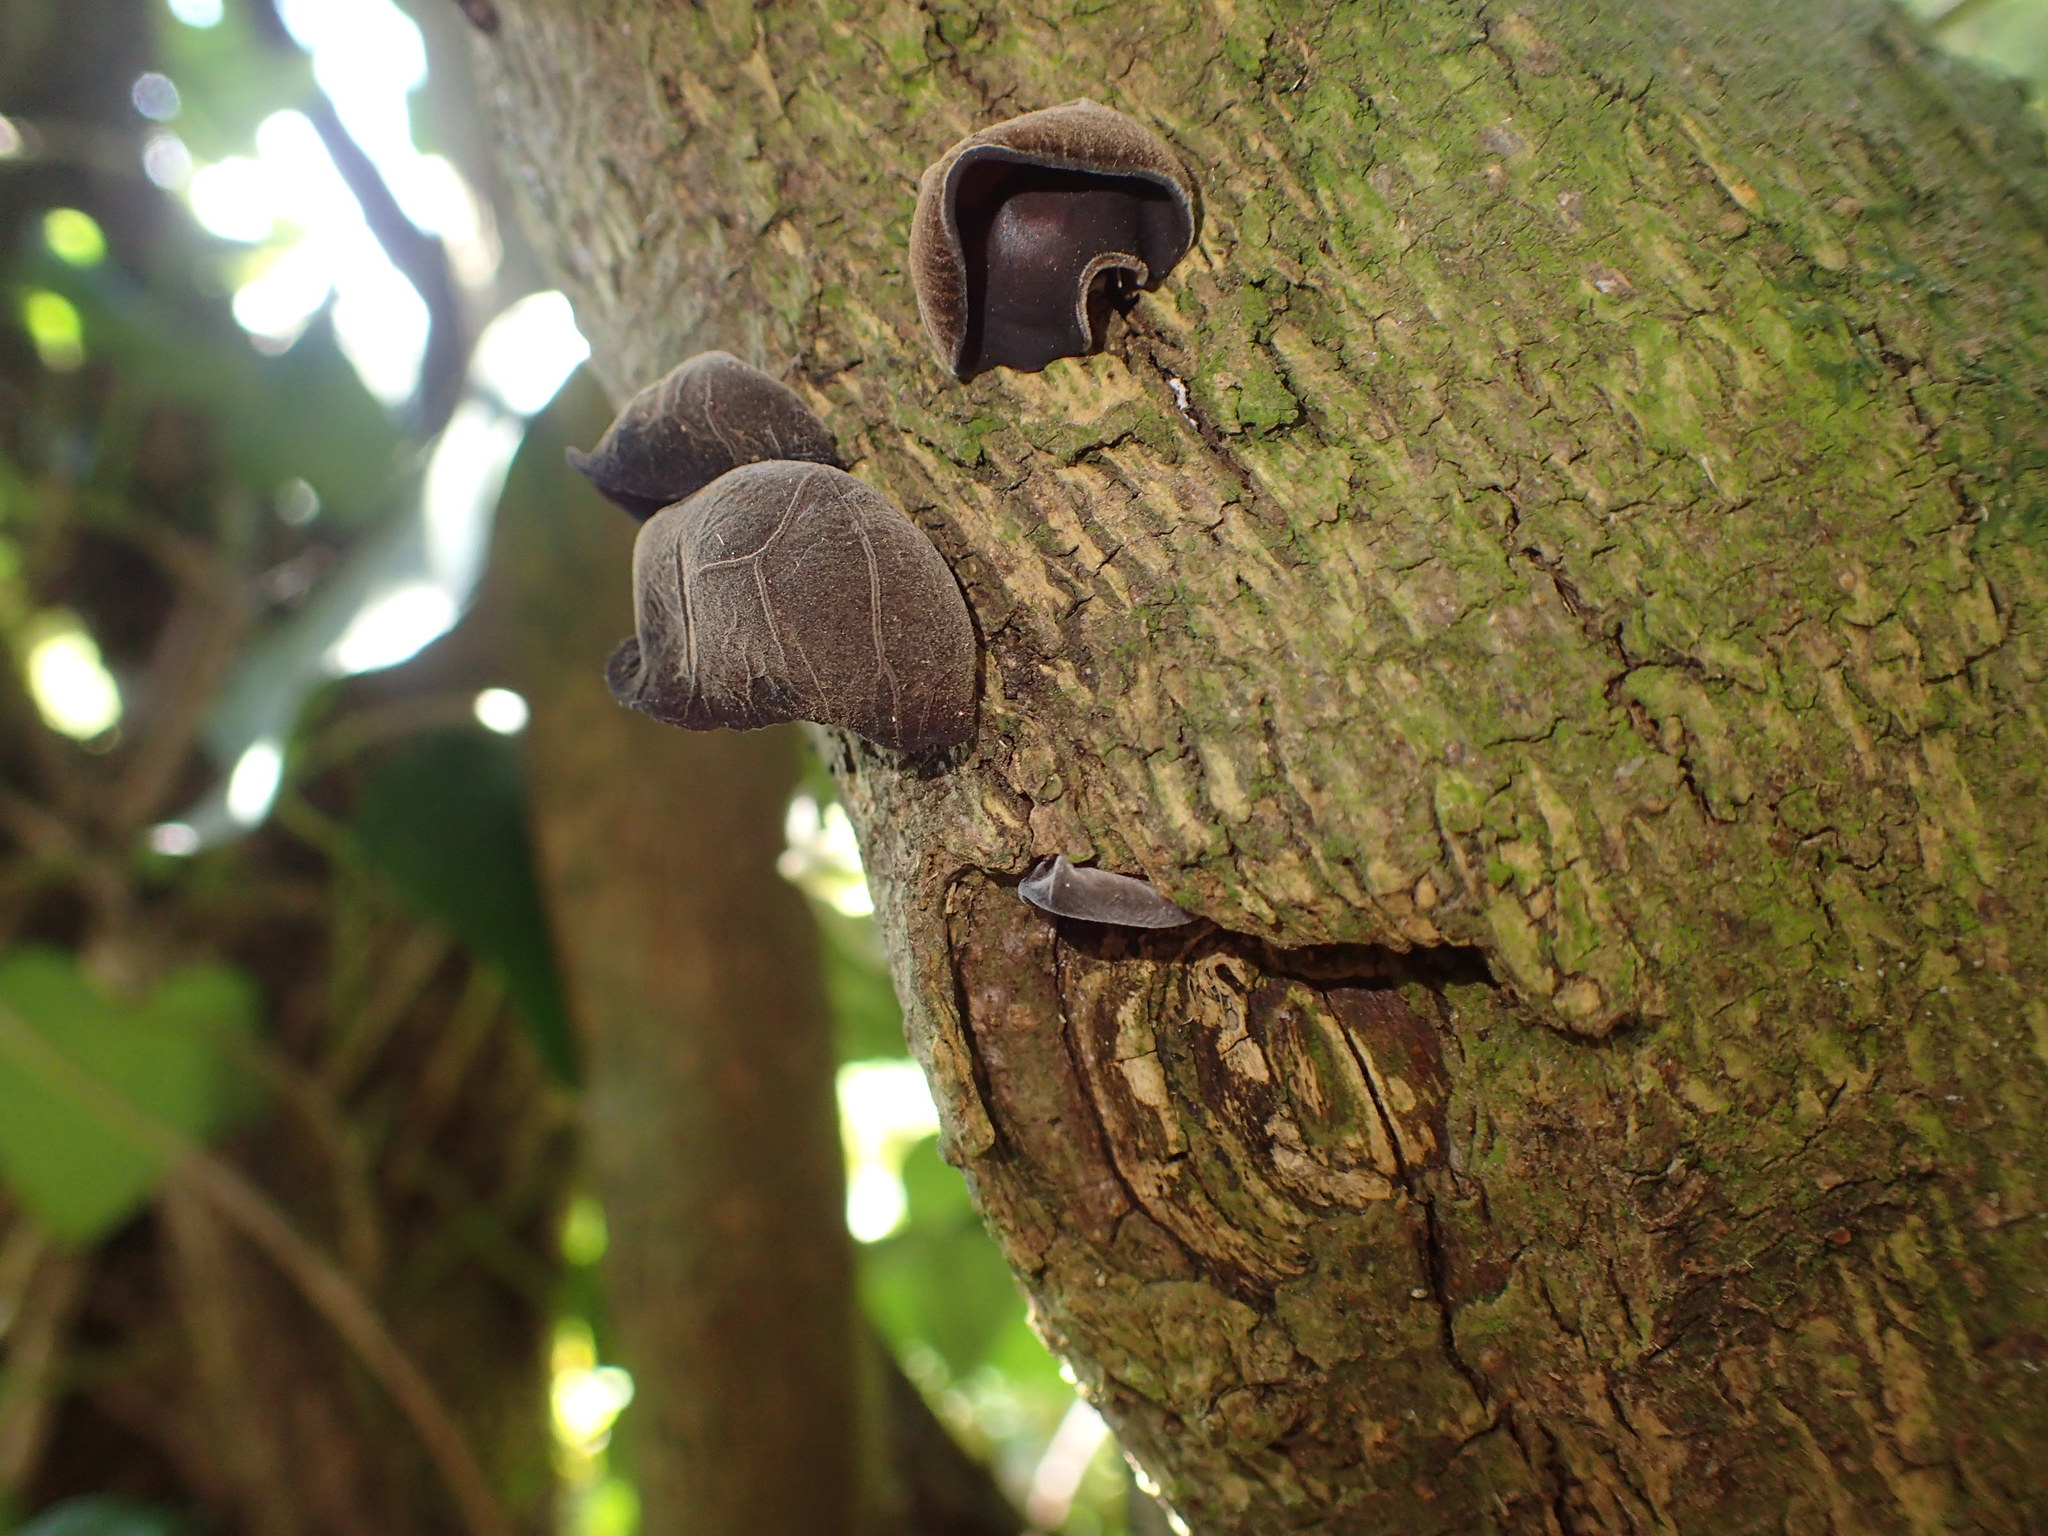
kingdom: Fungi
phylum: Basidiomycota
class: Agaricomycetes
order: Auriculariales
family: Auriculariaceae
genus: Auricularia
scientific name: Auricularia auricula-judae
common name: Jelly ear
